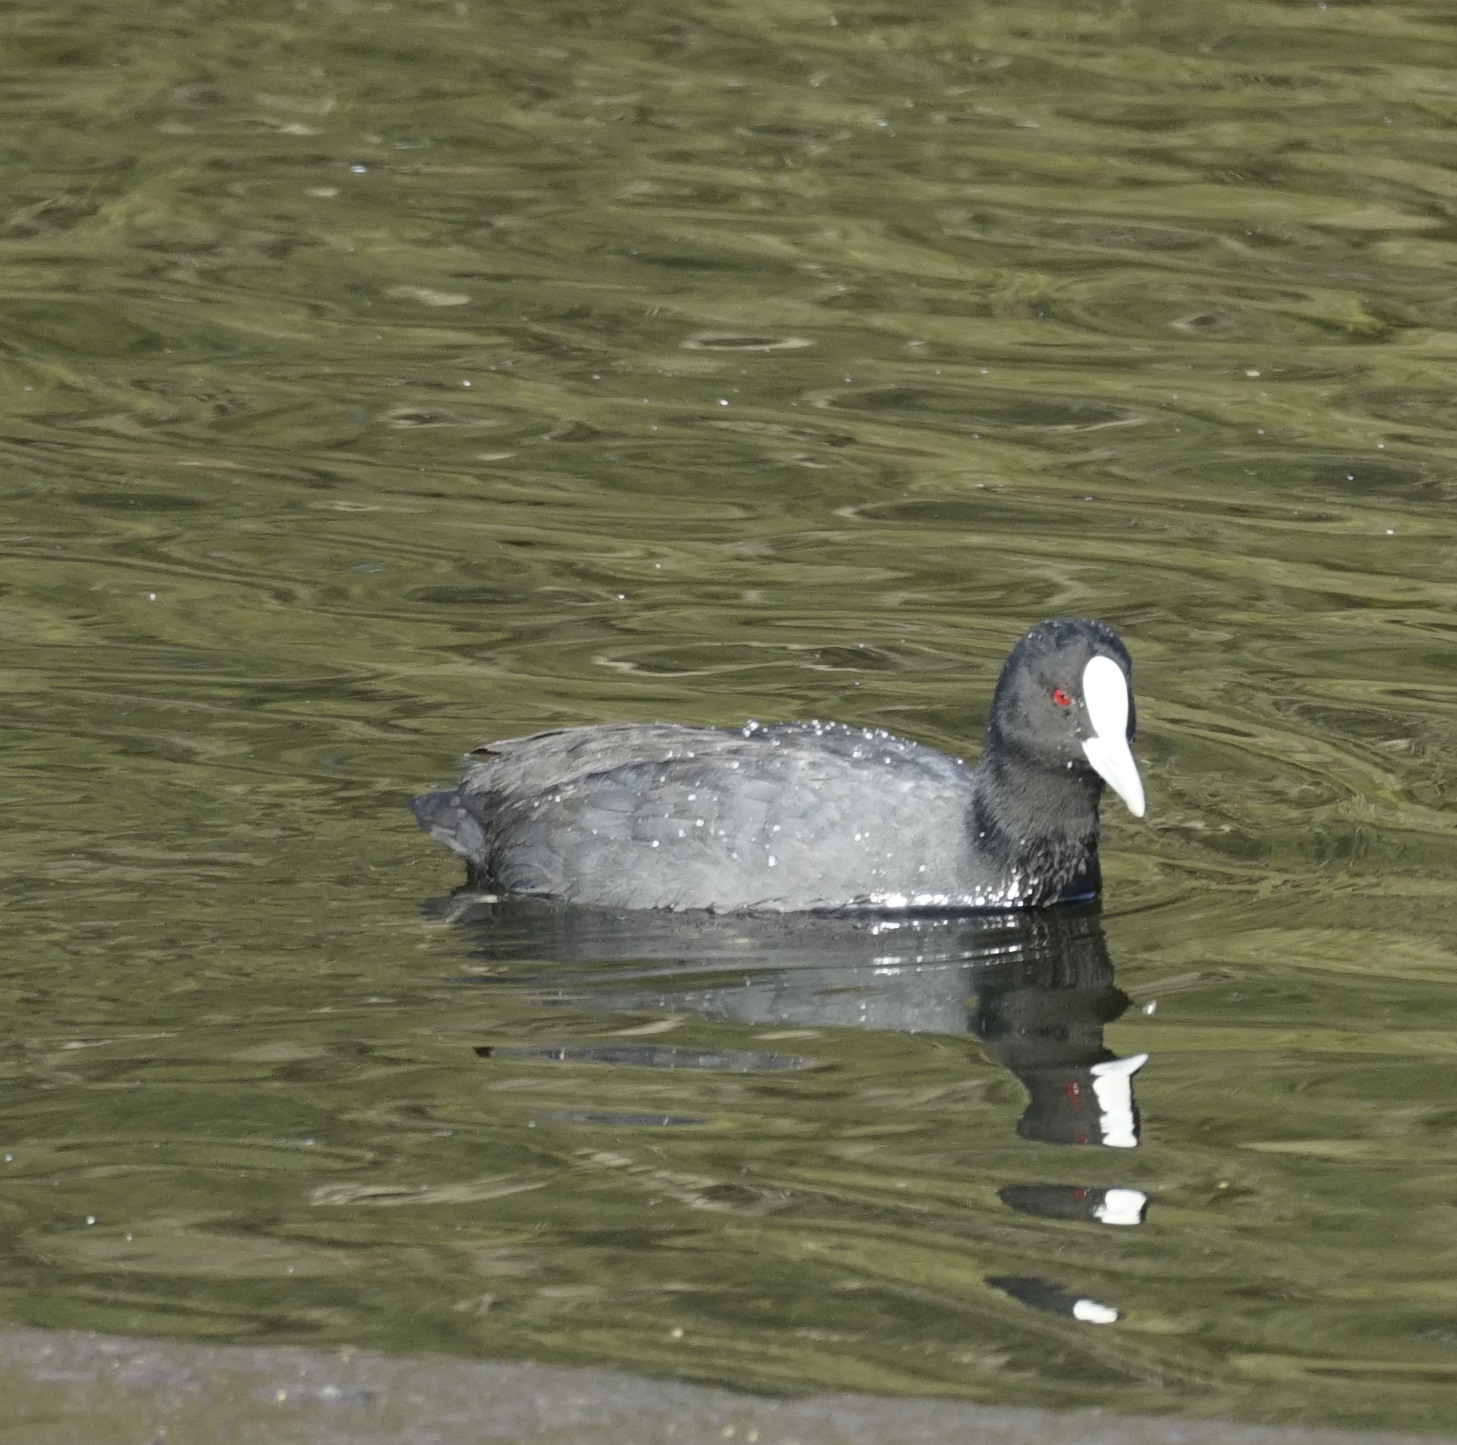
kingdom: Animalia
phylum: Chordata
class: Aves
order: Gruiformes
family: Rallidae
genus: Fulica
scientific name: Fulica atra
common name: Eurasian coot
